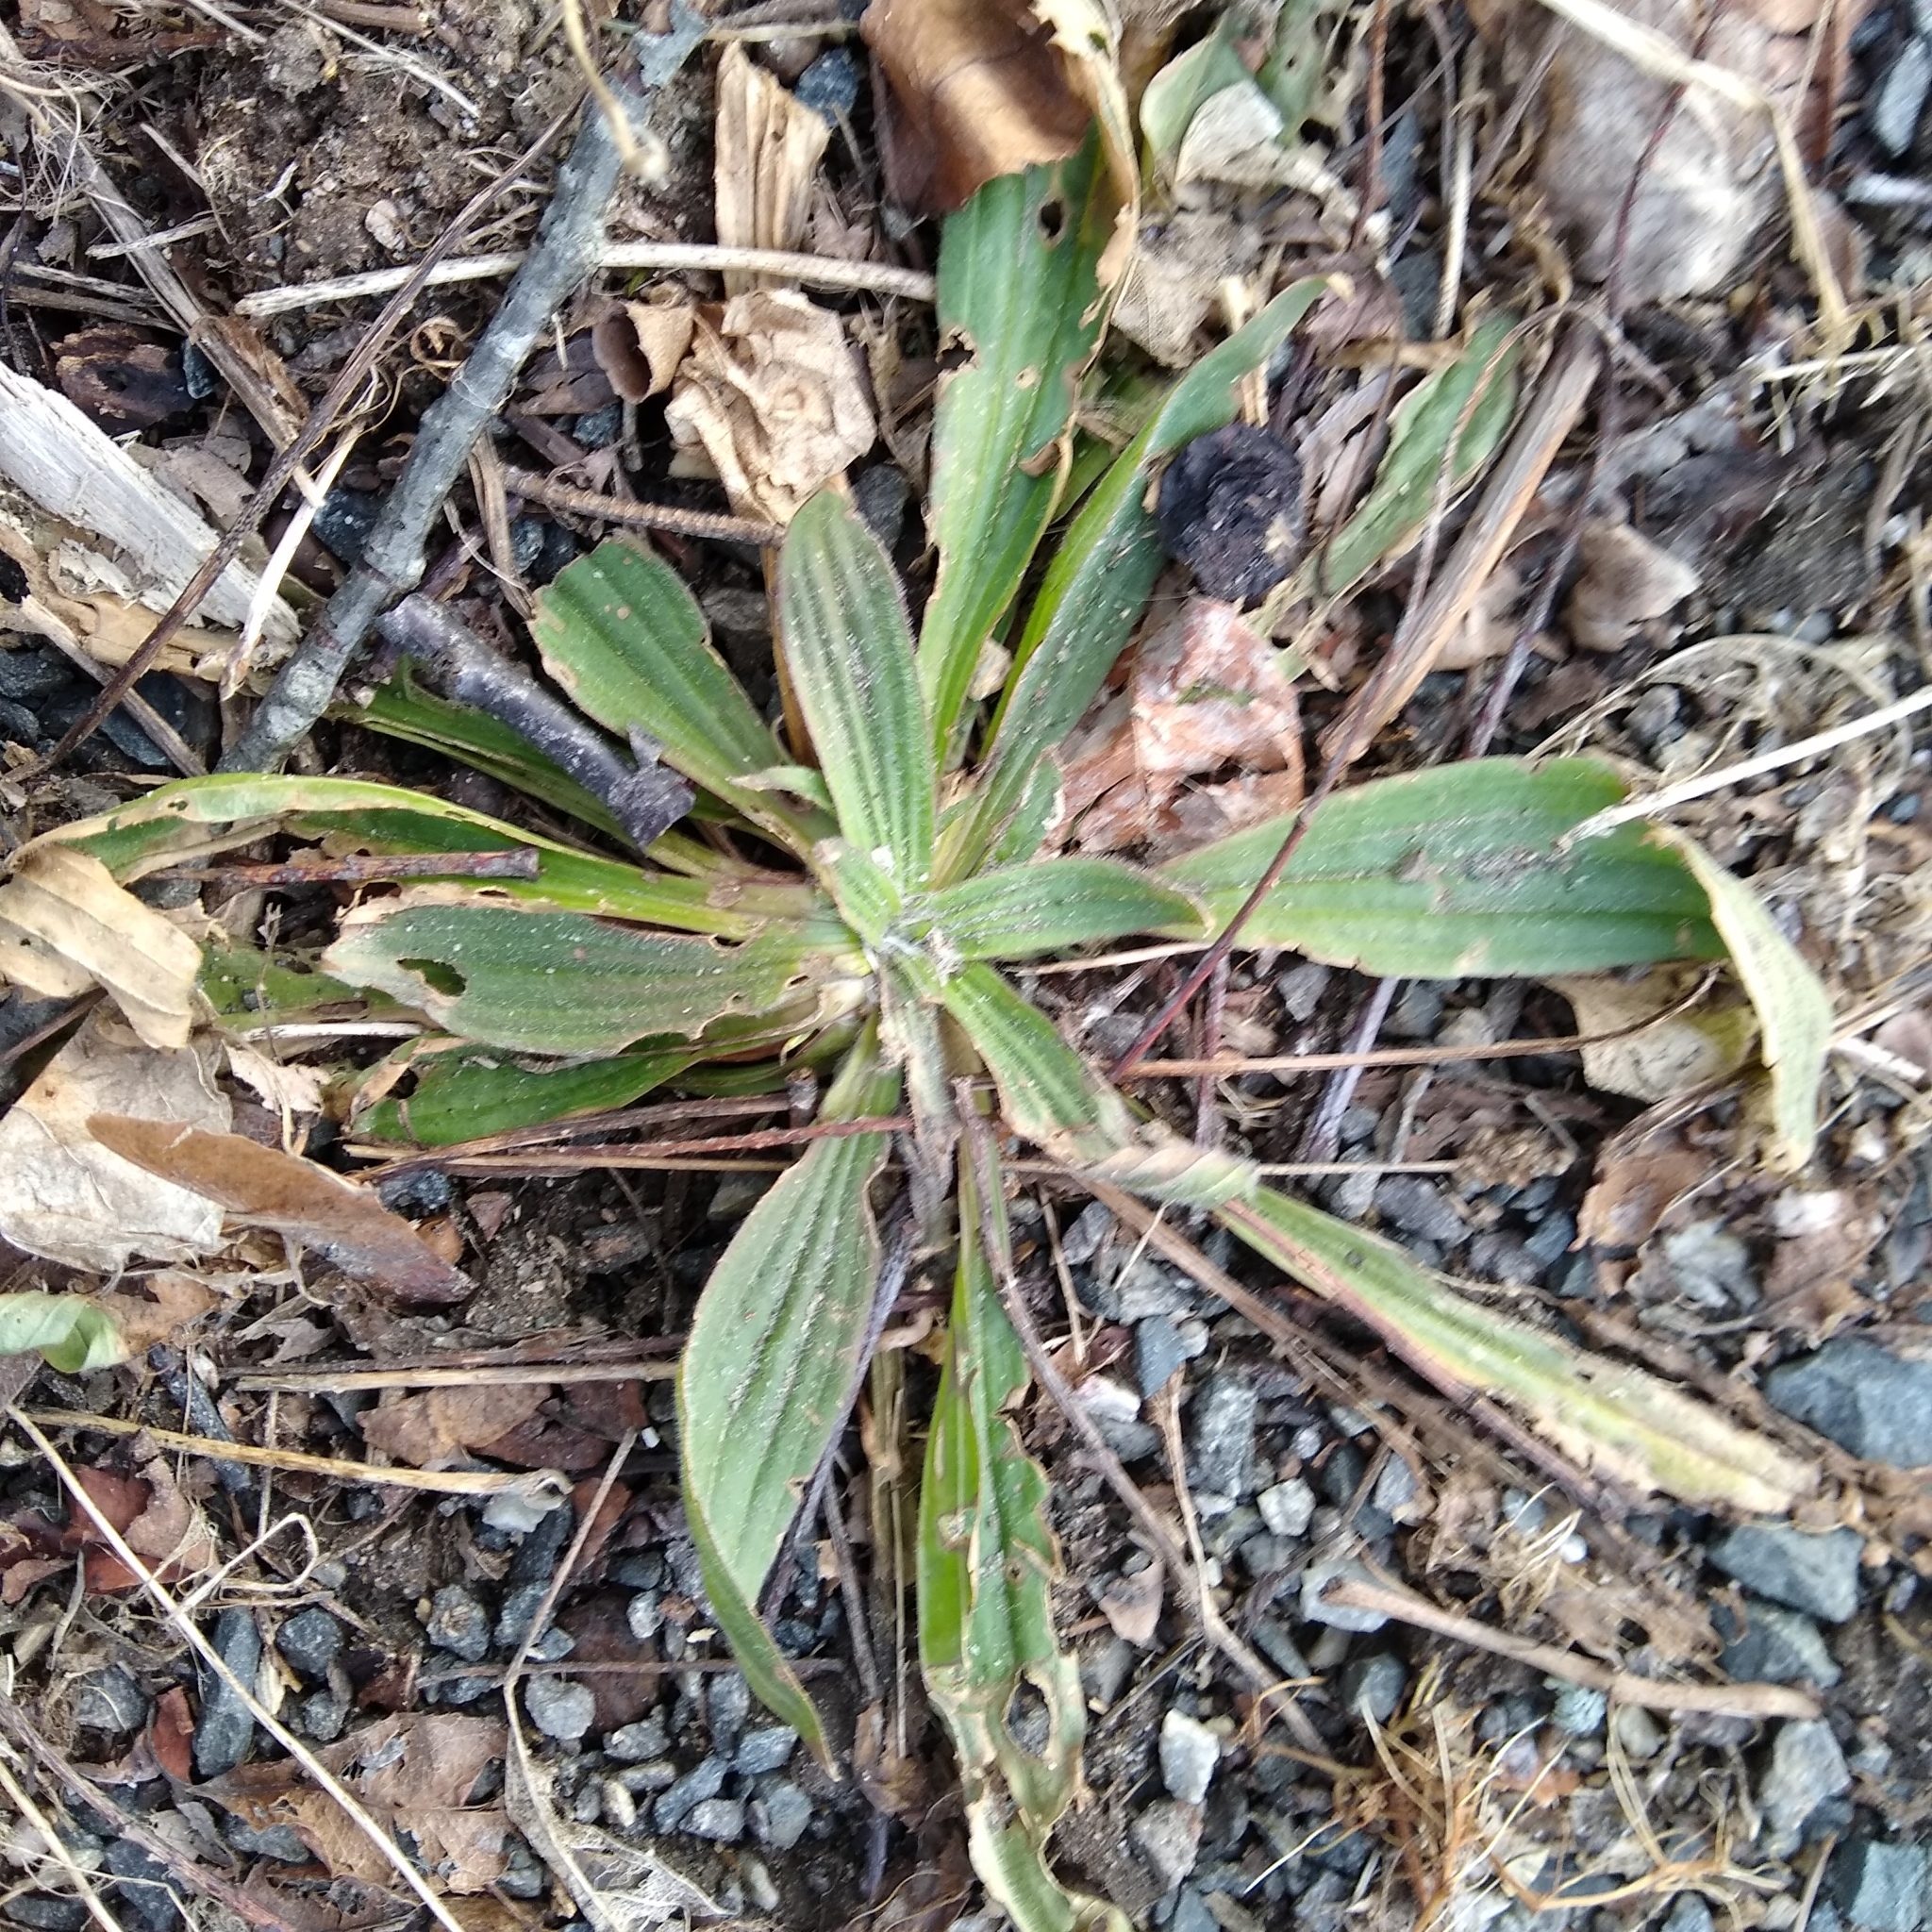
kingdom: Plantae
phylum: Tracheophyta
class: Magnoliopsida
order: Lamiales
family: Plantaginaceae
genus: Plantago
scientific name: Plantago lanceolata
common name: Ribwort plantain
